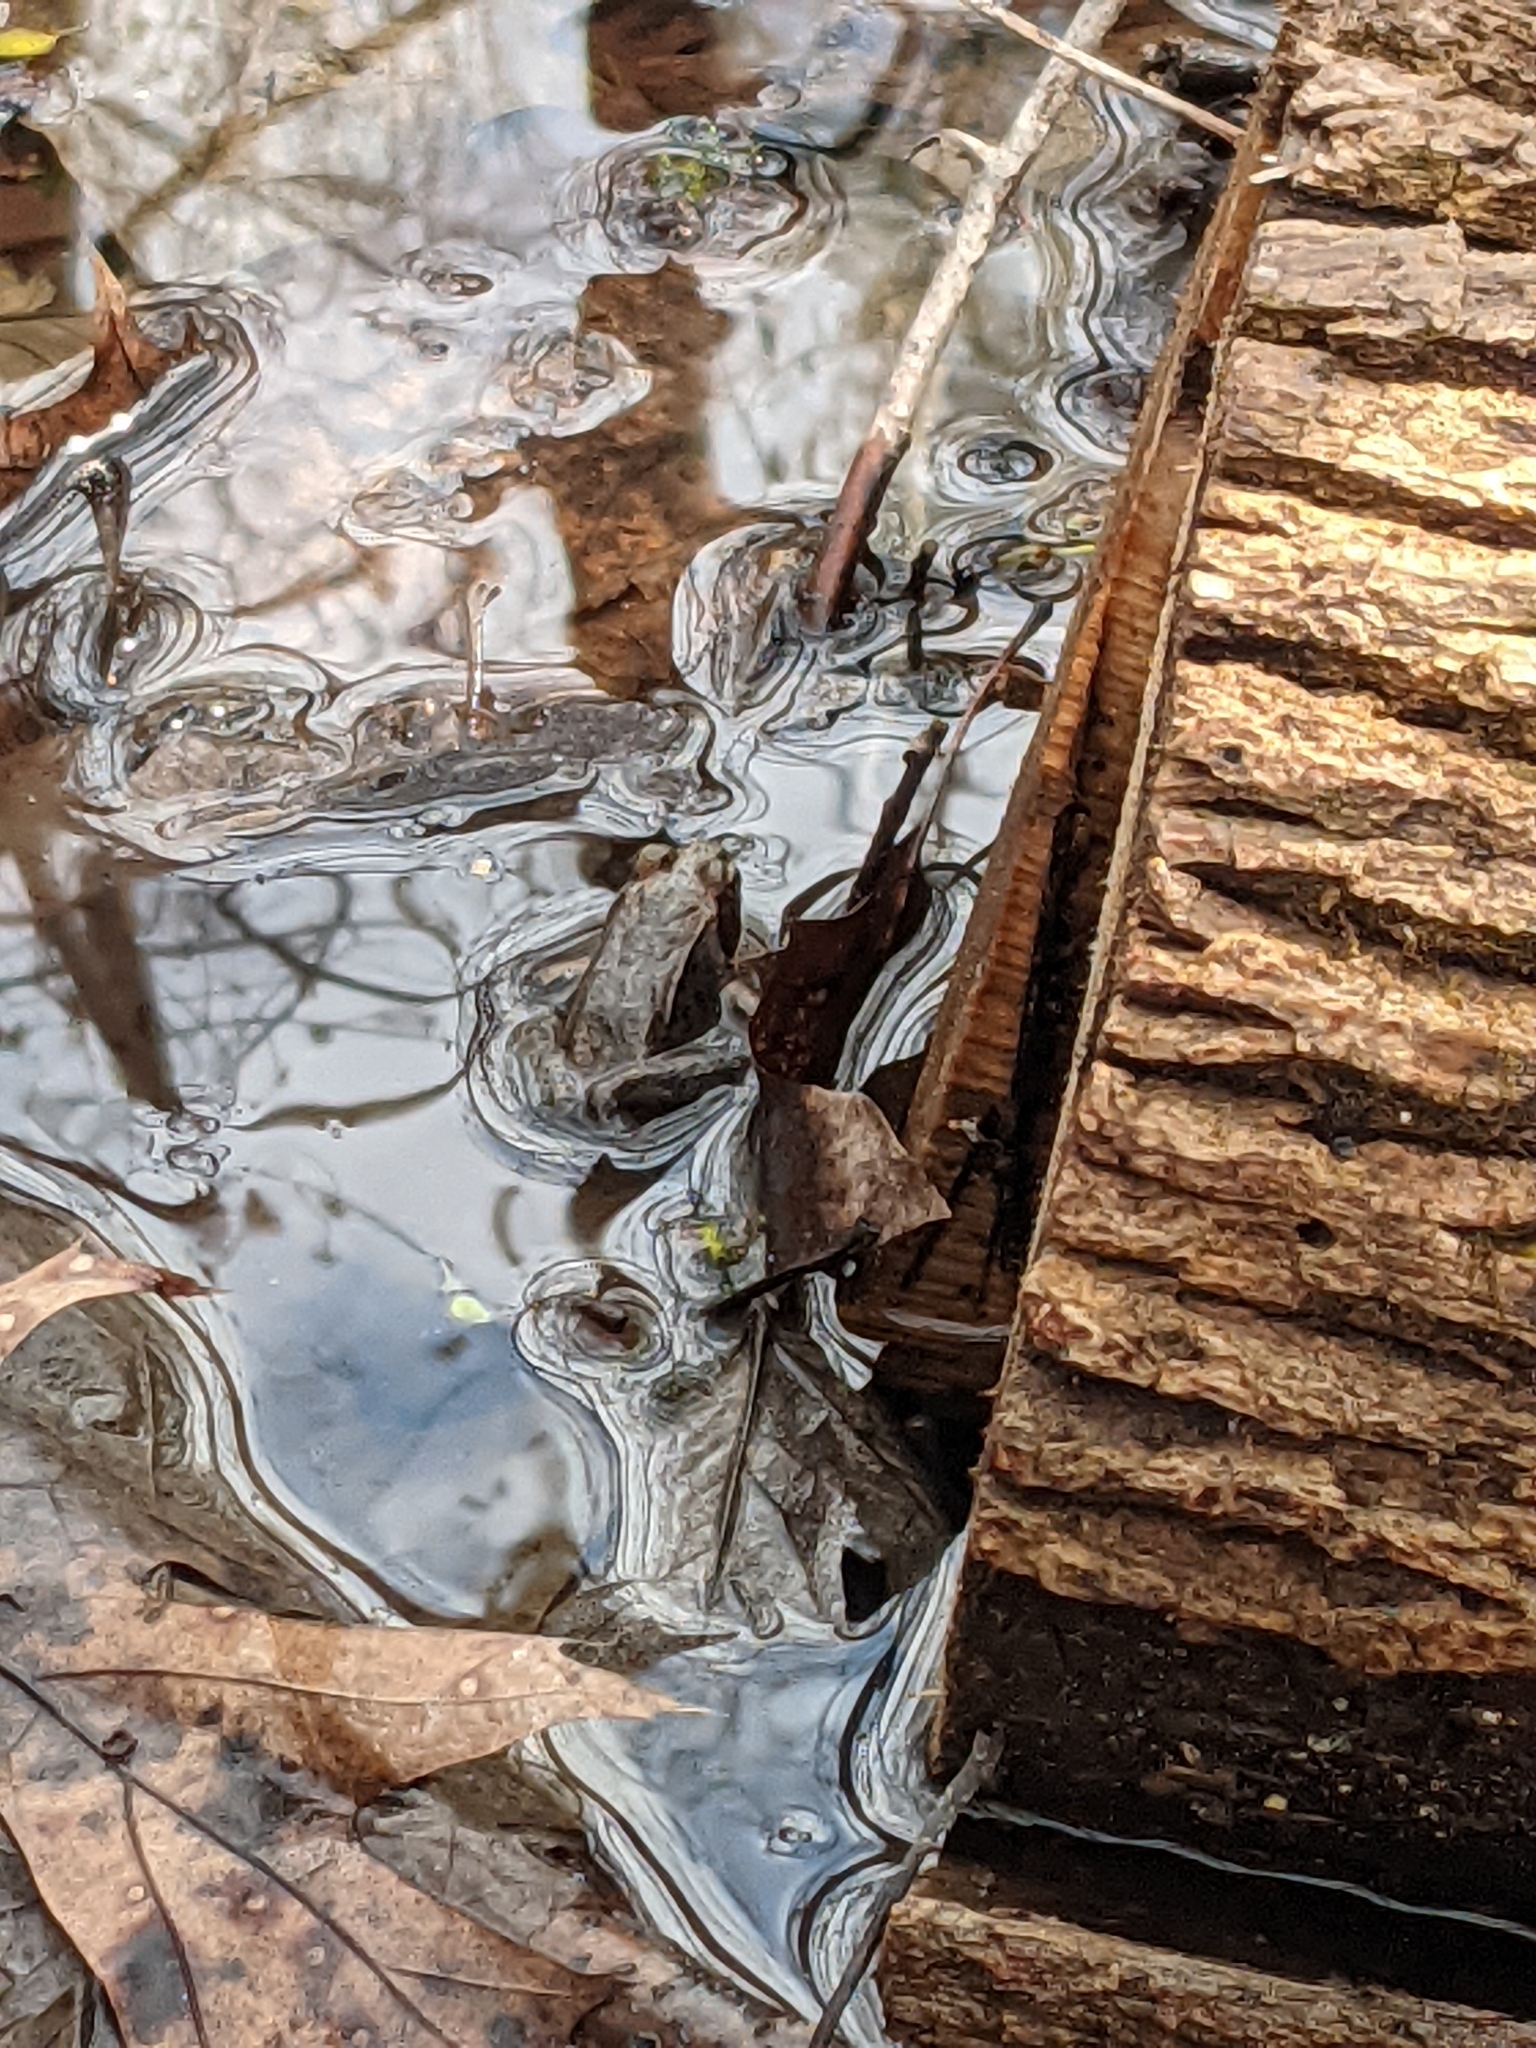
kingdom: Animalia
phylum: Chordata
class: Amphibia
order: Anura
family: Ranidae
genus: Lithobates
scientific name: Lithobates sylvaticus
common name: Wood frog
